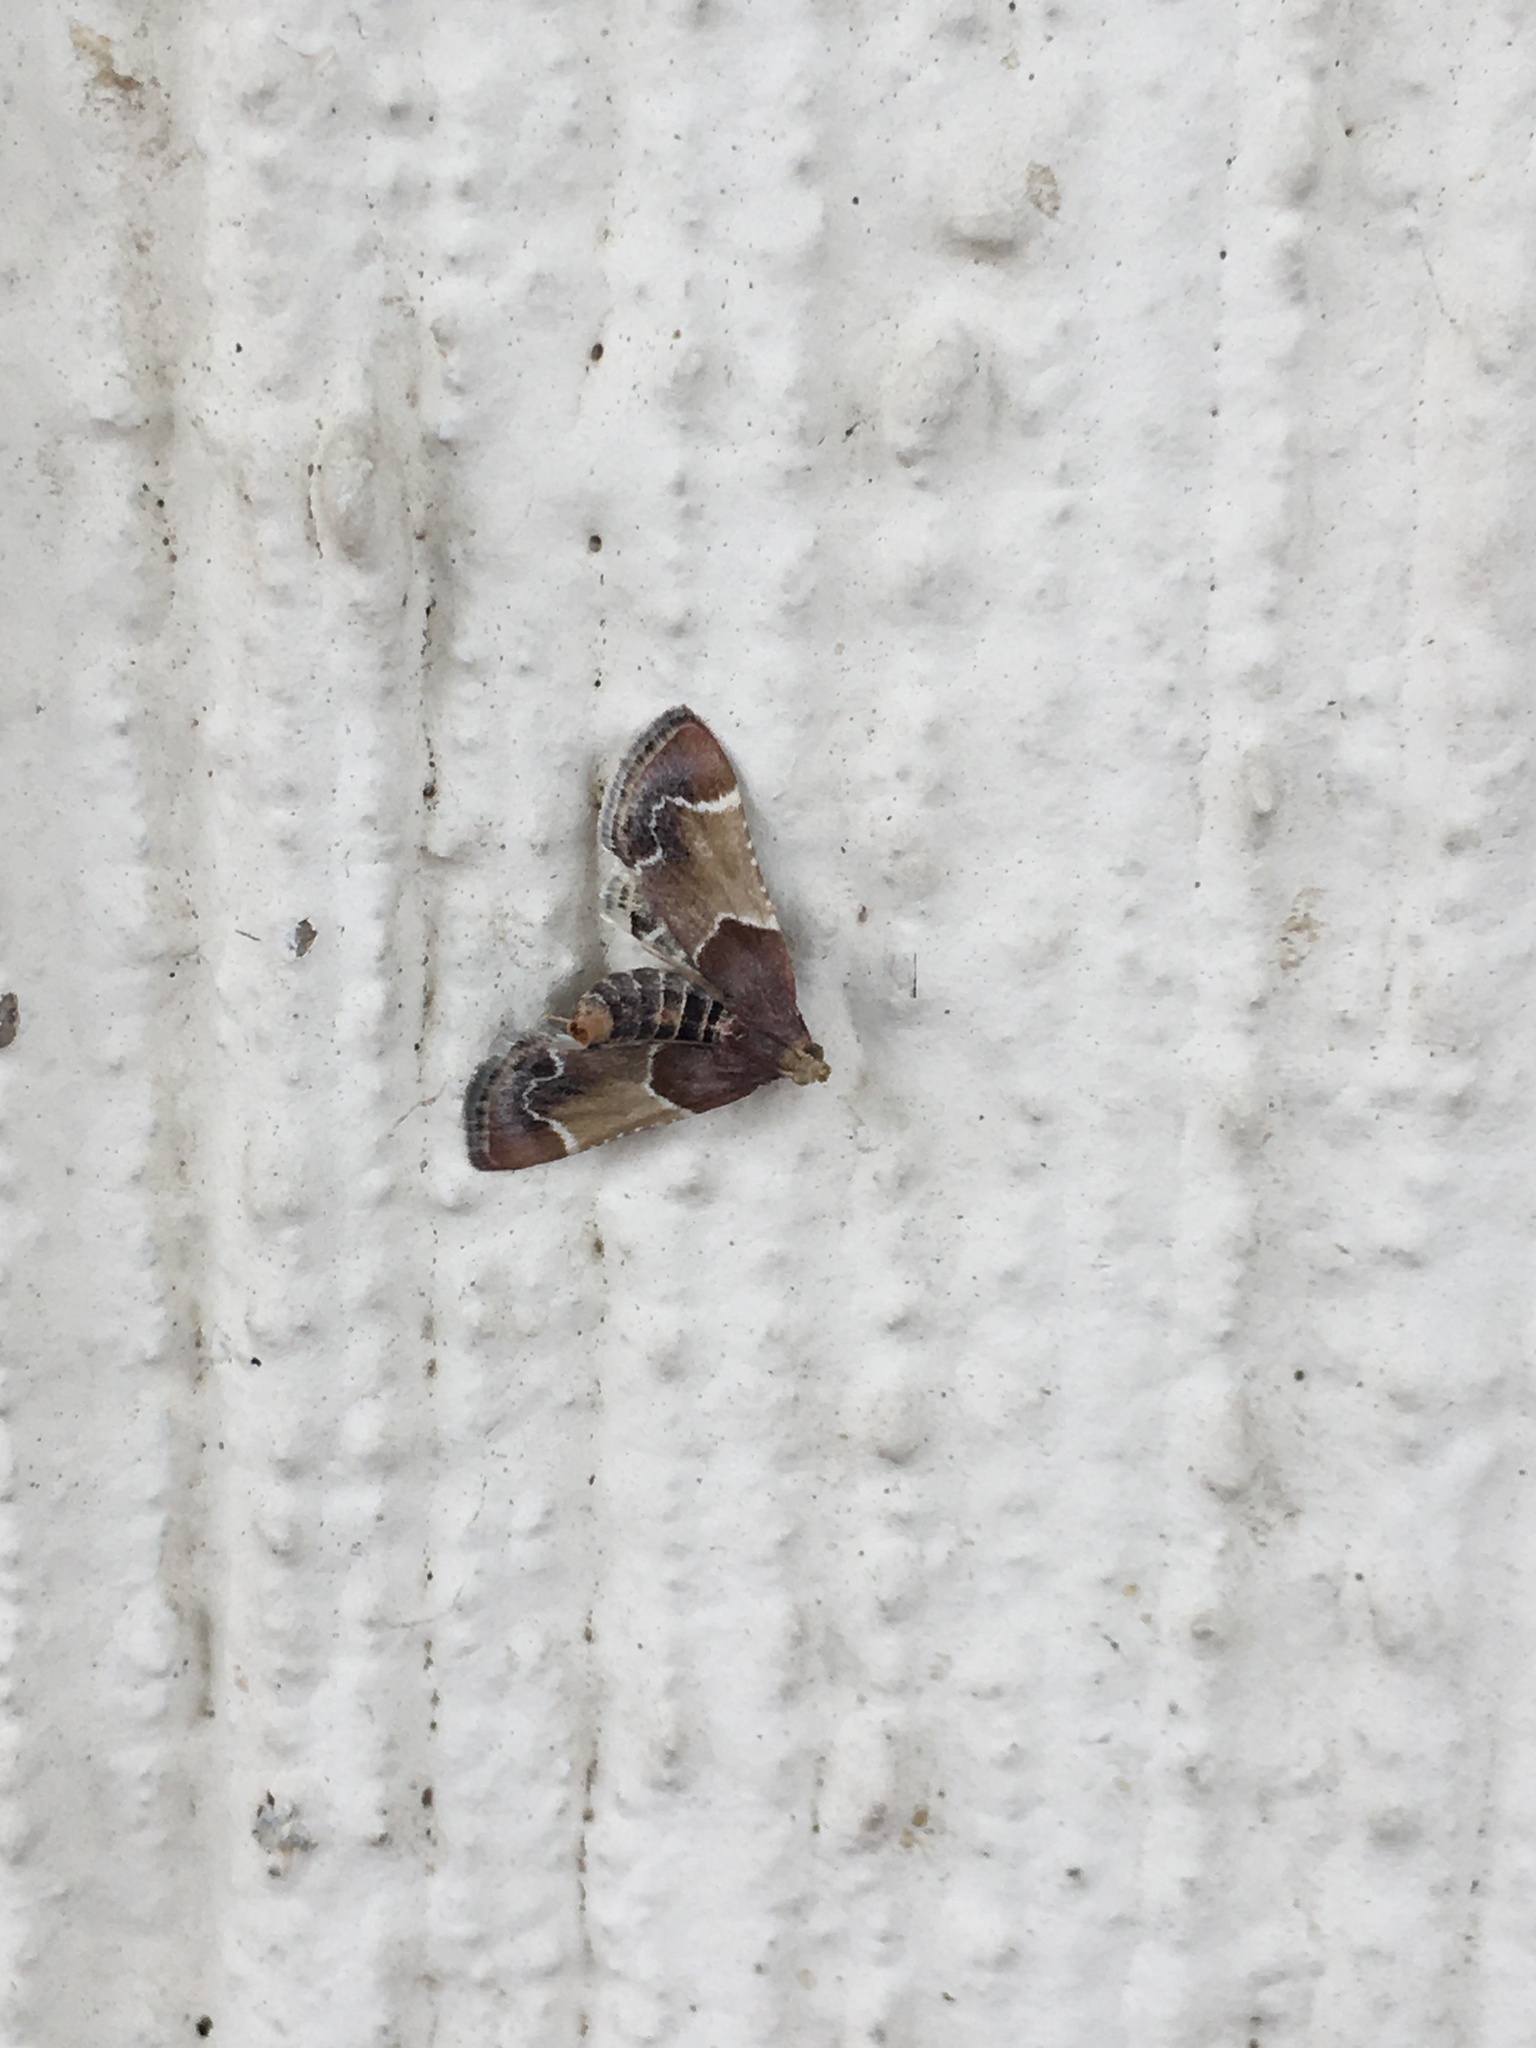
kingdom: Animalia
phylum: Arthropoda
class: Insecta
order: Lepidoptera
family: Pyralidae
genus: Pyralis
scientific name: Pyralis farinalis
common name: Meal moth
